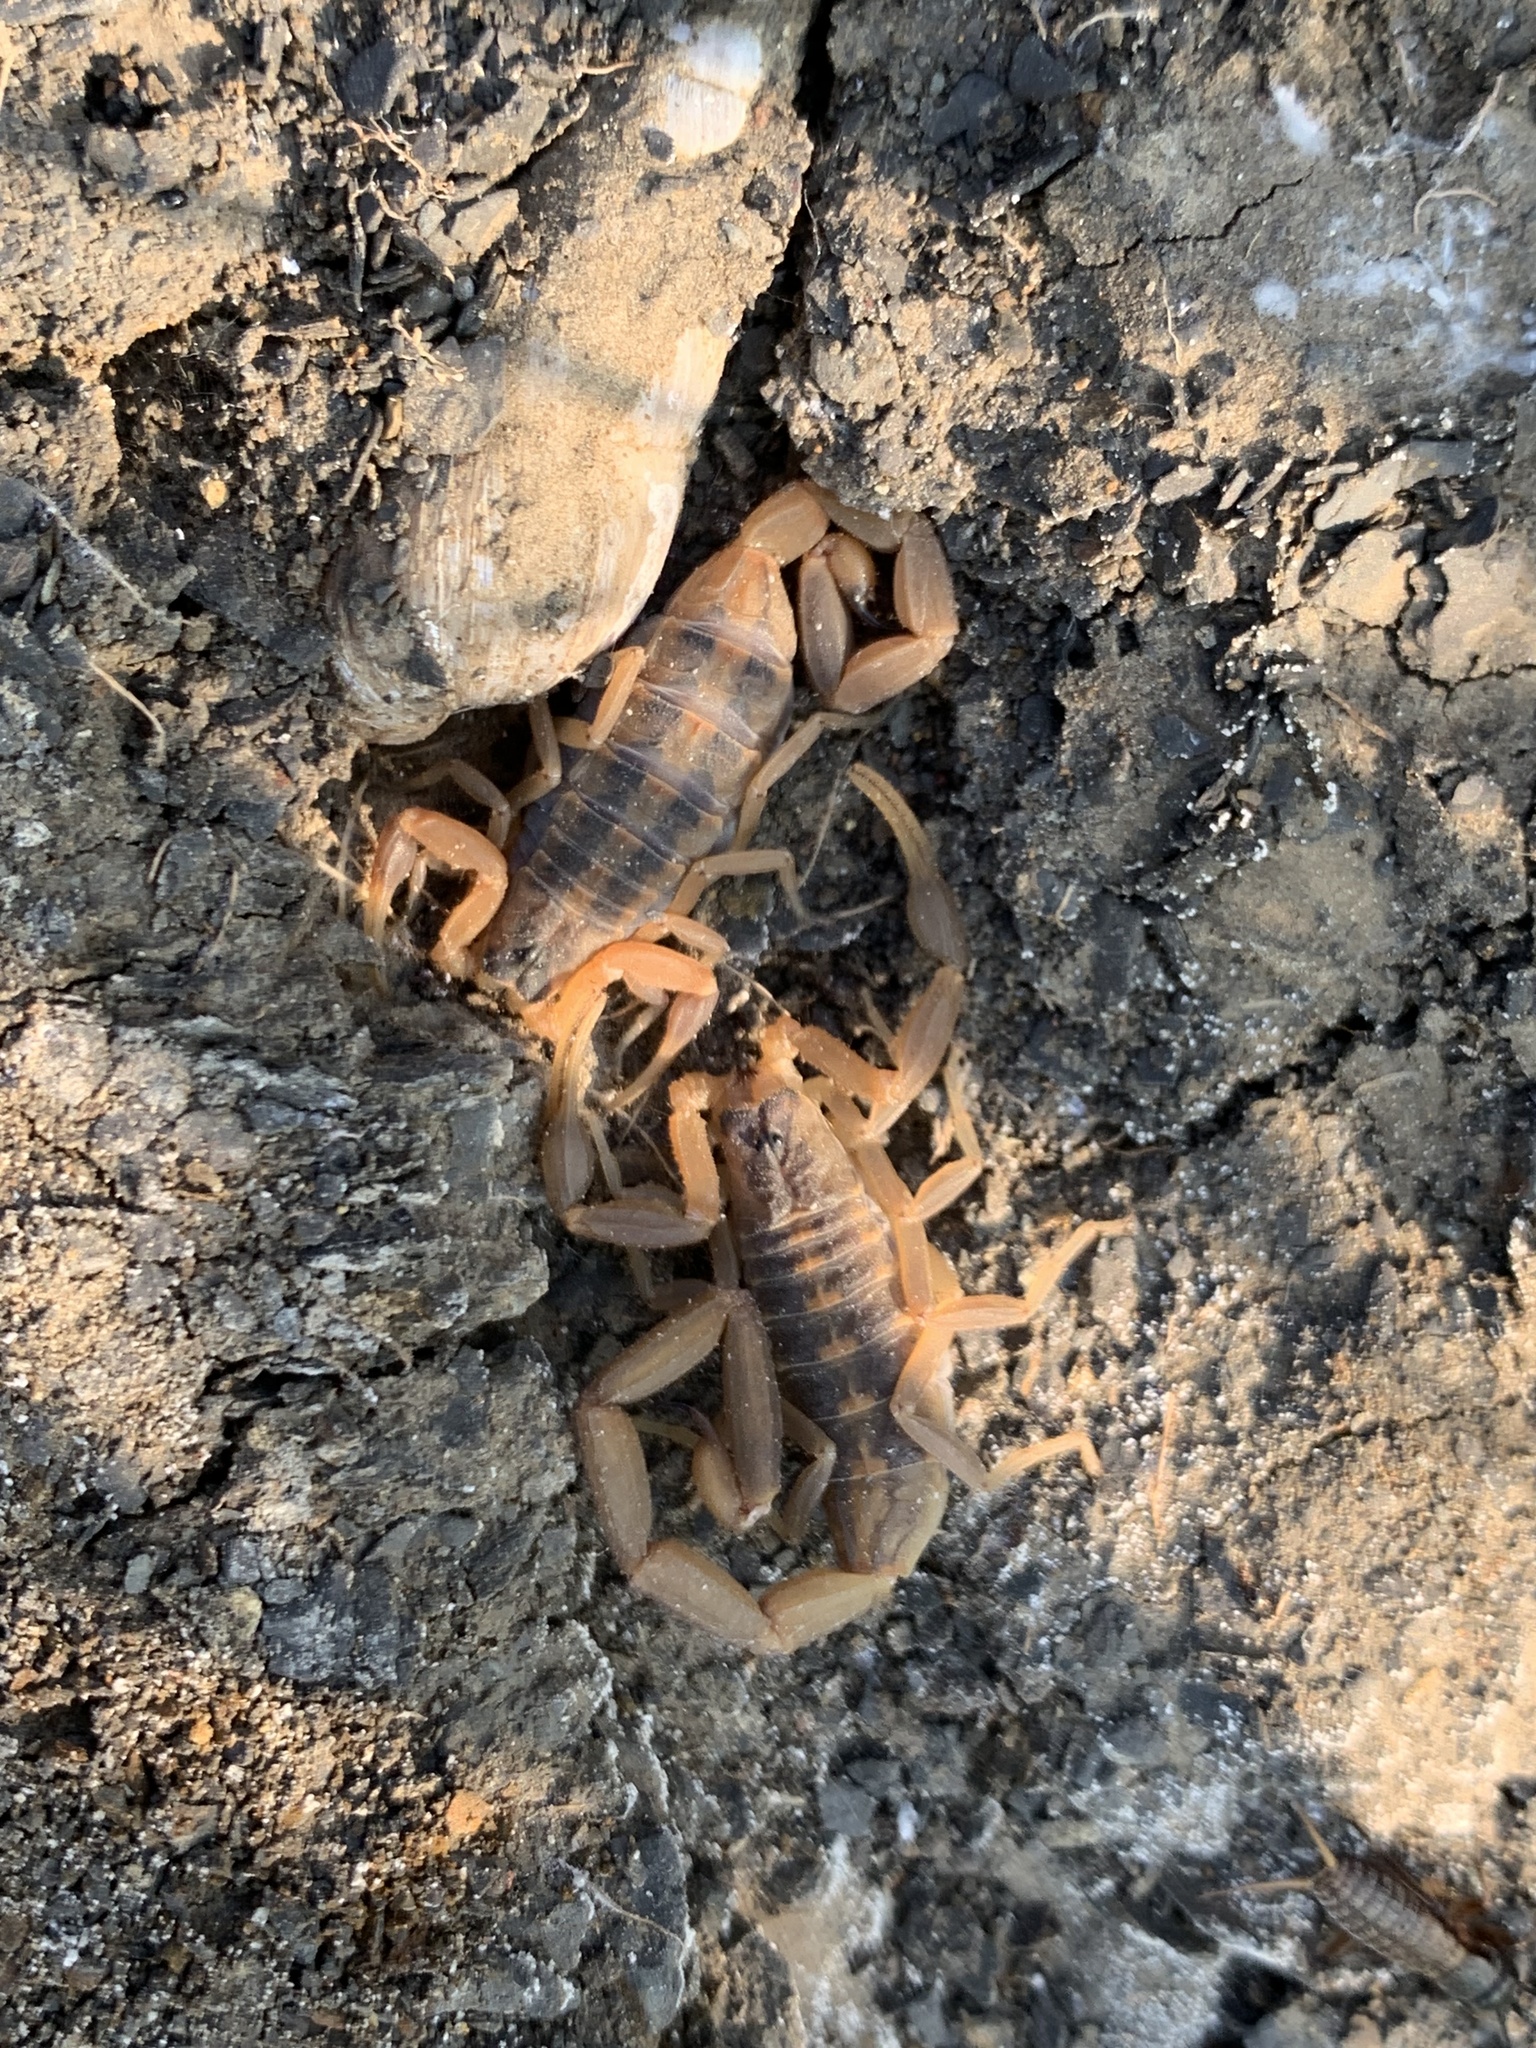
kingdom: Animalia
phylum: Arthropoda
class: Arachnida
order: Scorpiones
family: Buthidae
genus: Centruroides
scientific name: Centruroides vittatus
